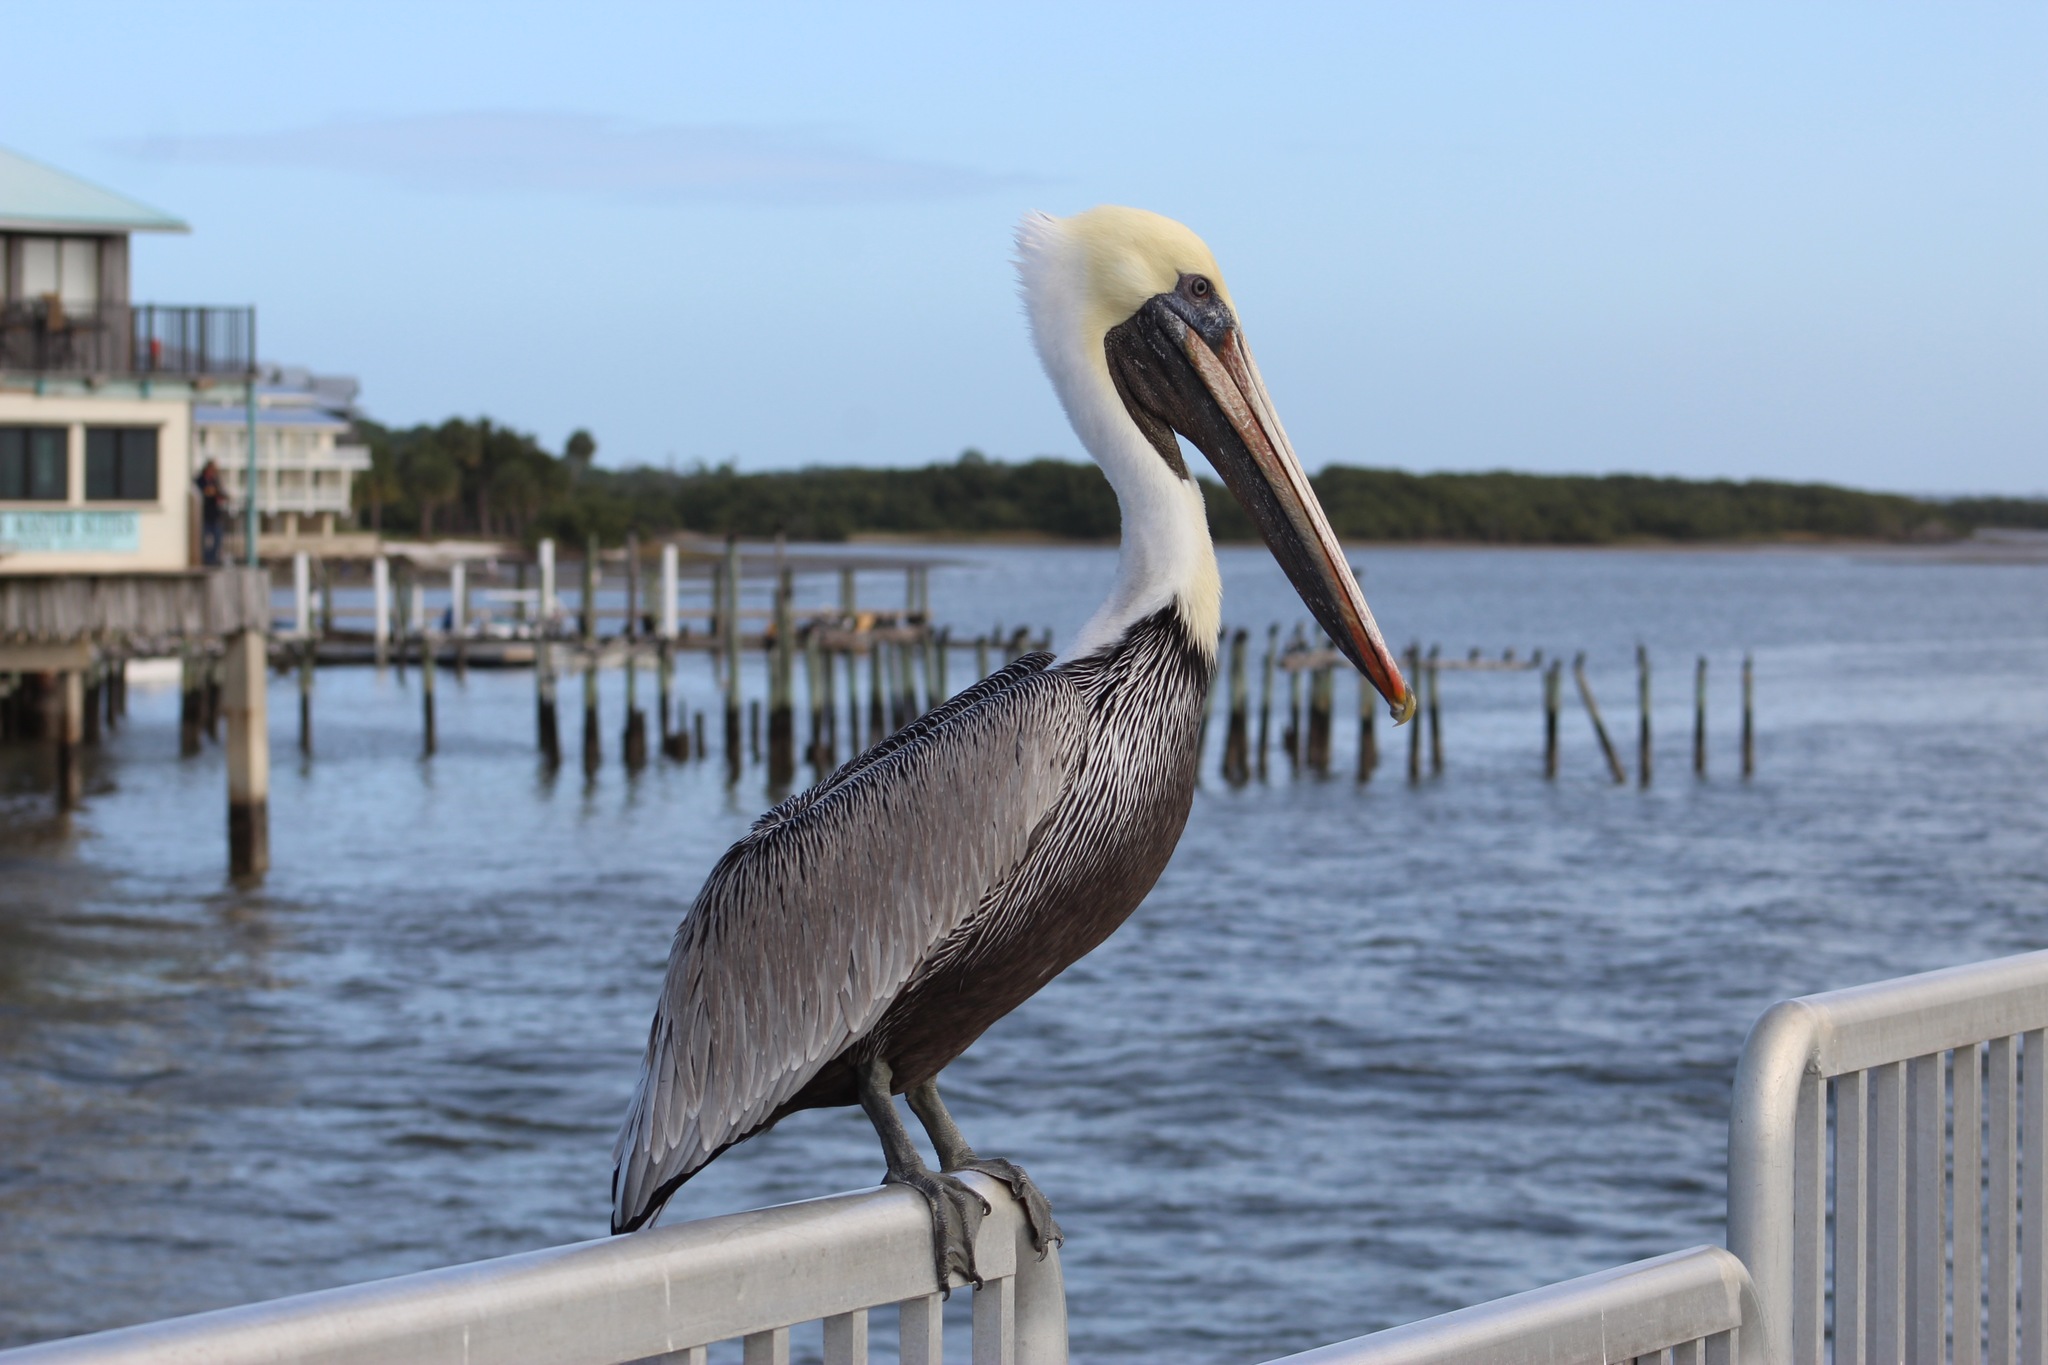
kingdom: Animalia
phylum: Chordata
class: Aves
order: Pelecaniformes
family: Pelecanidae
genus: Pelecanus
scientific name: Pelecanus occidentalis
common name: Brown pelican
